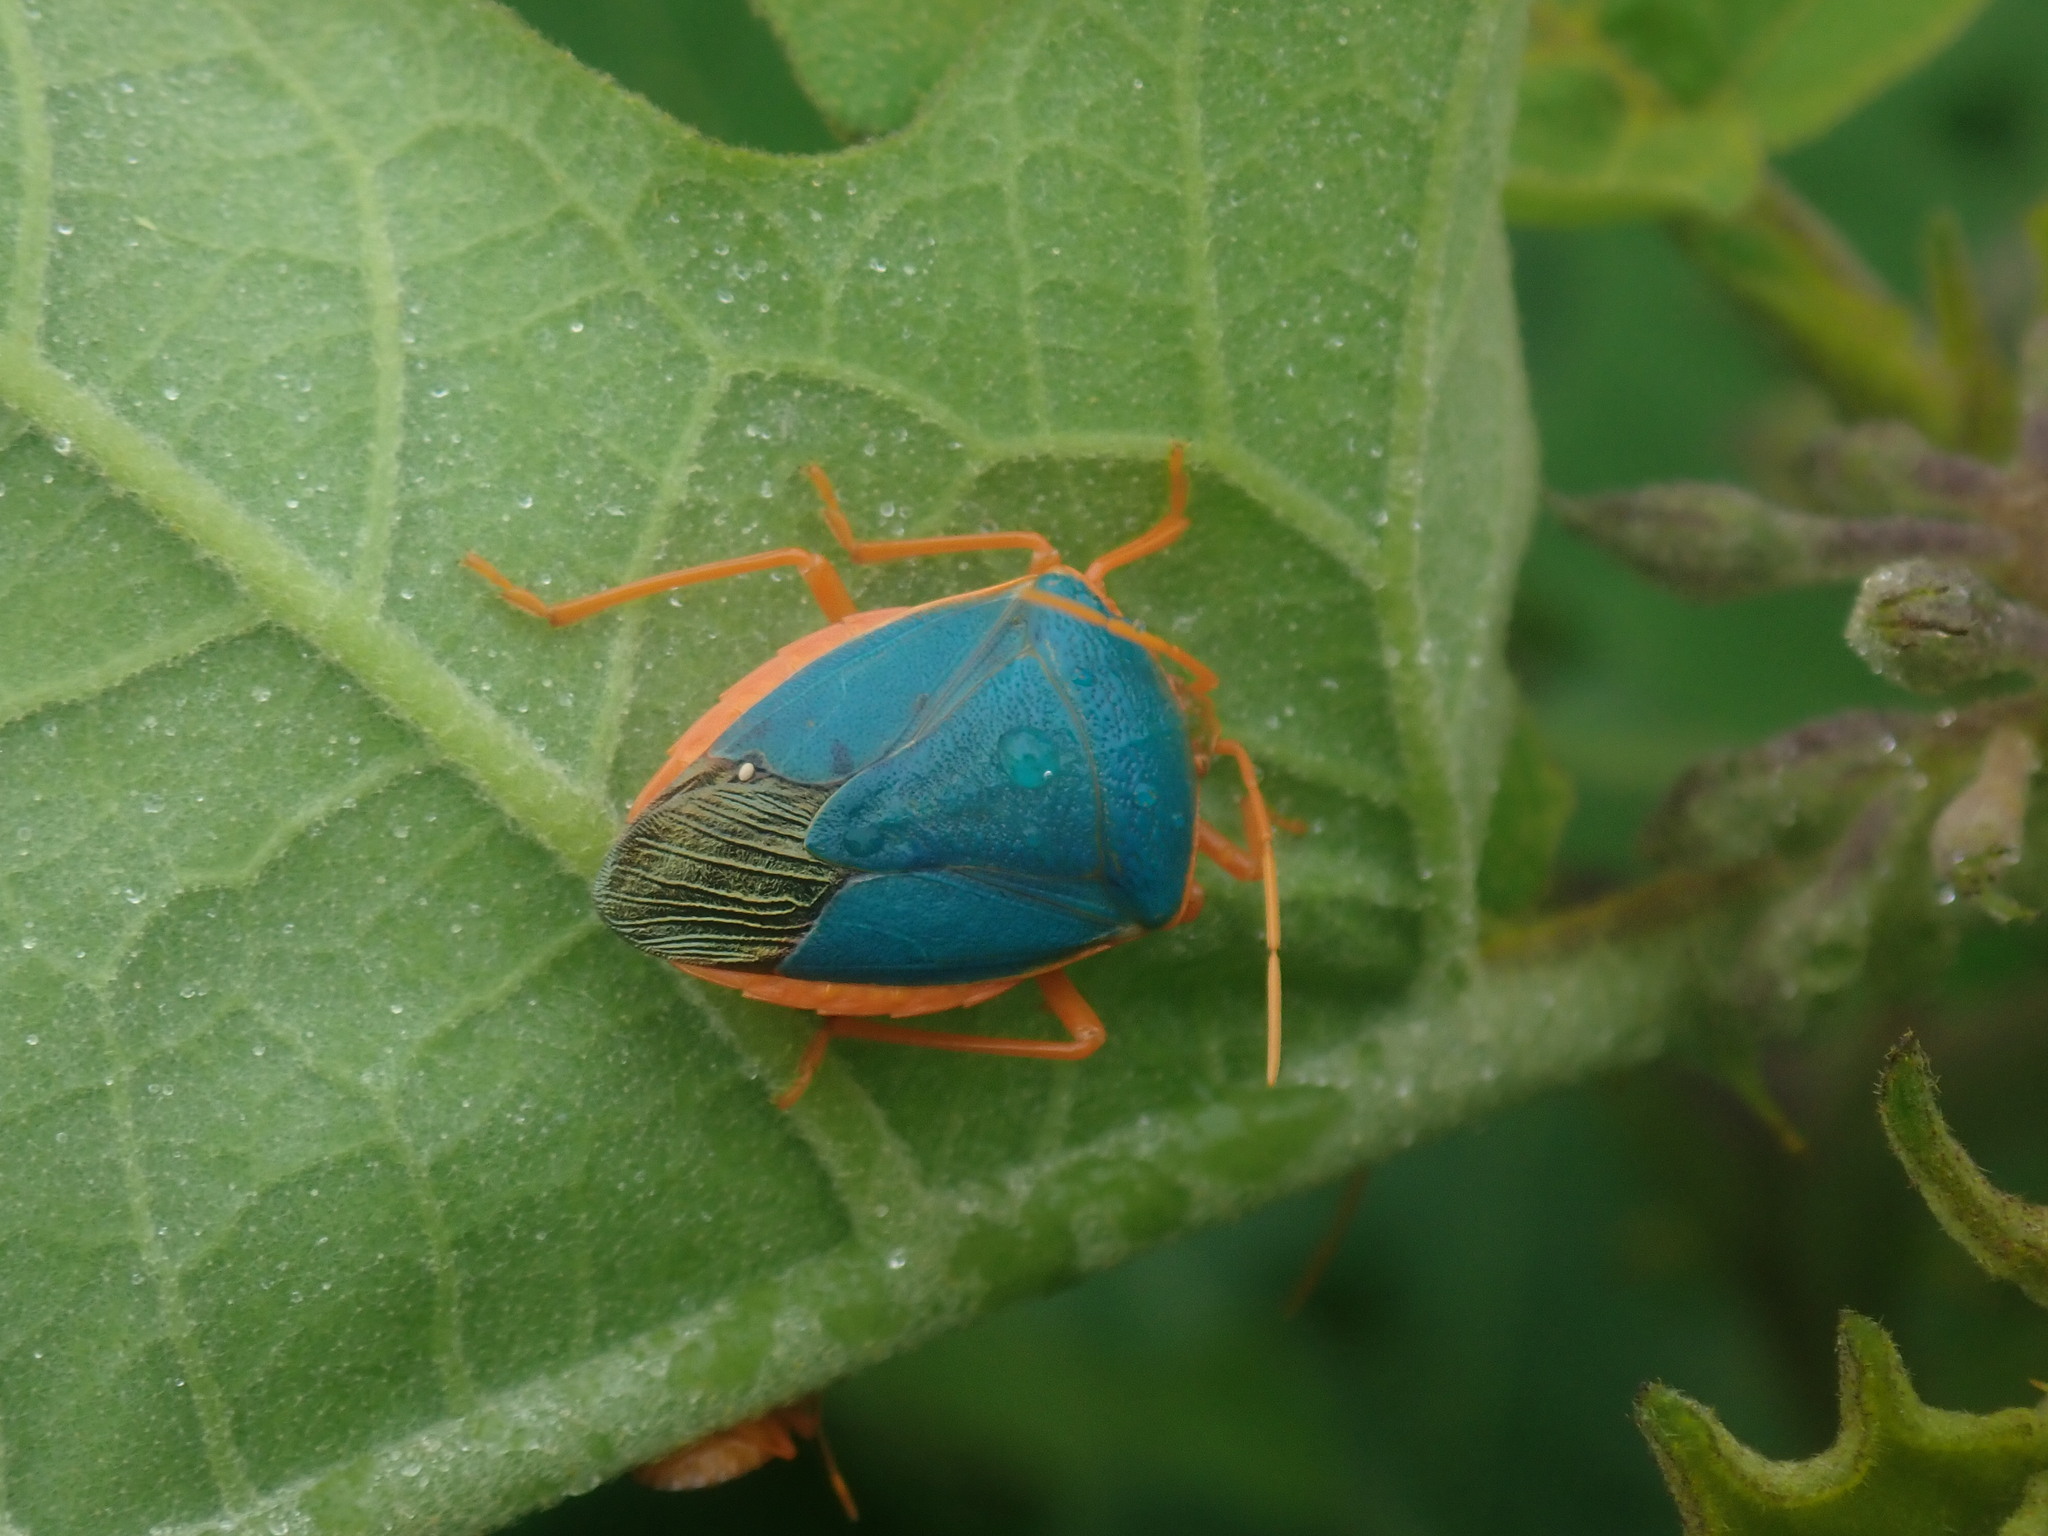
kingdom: Animalia
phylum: Arthropoda
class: Insecta
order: Hemiptera
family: Pentatomidae
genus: Edessa
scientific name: Edessa rufomarginata
